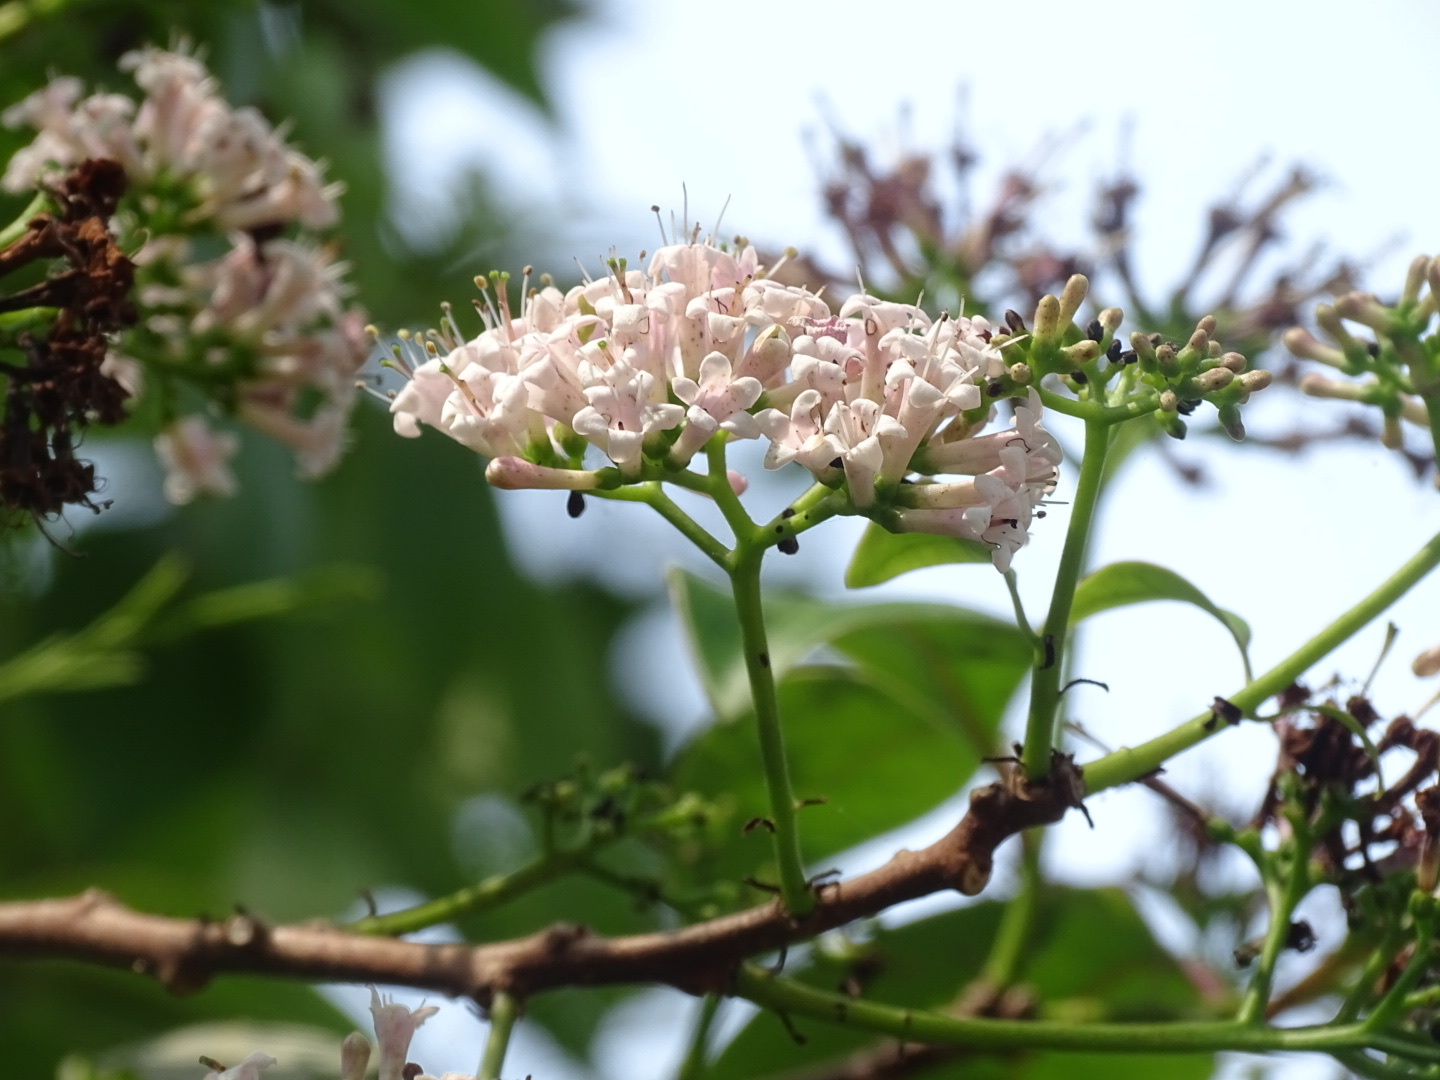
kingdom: Plantae
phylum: Tracheophyta
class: Magnoliopsida
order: Boraginales
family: Ehretiaceae
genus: Ehretia
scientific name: Ehretia longiflora
